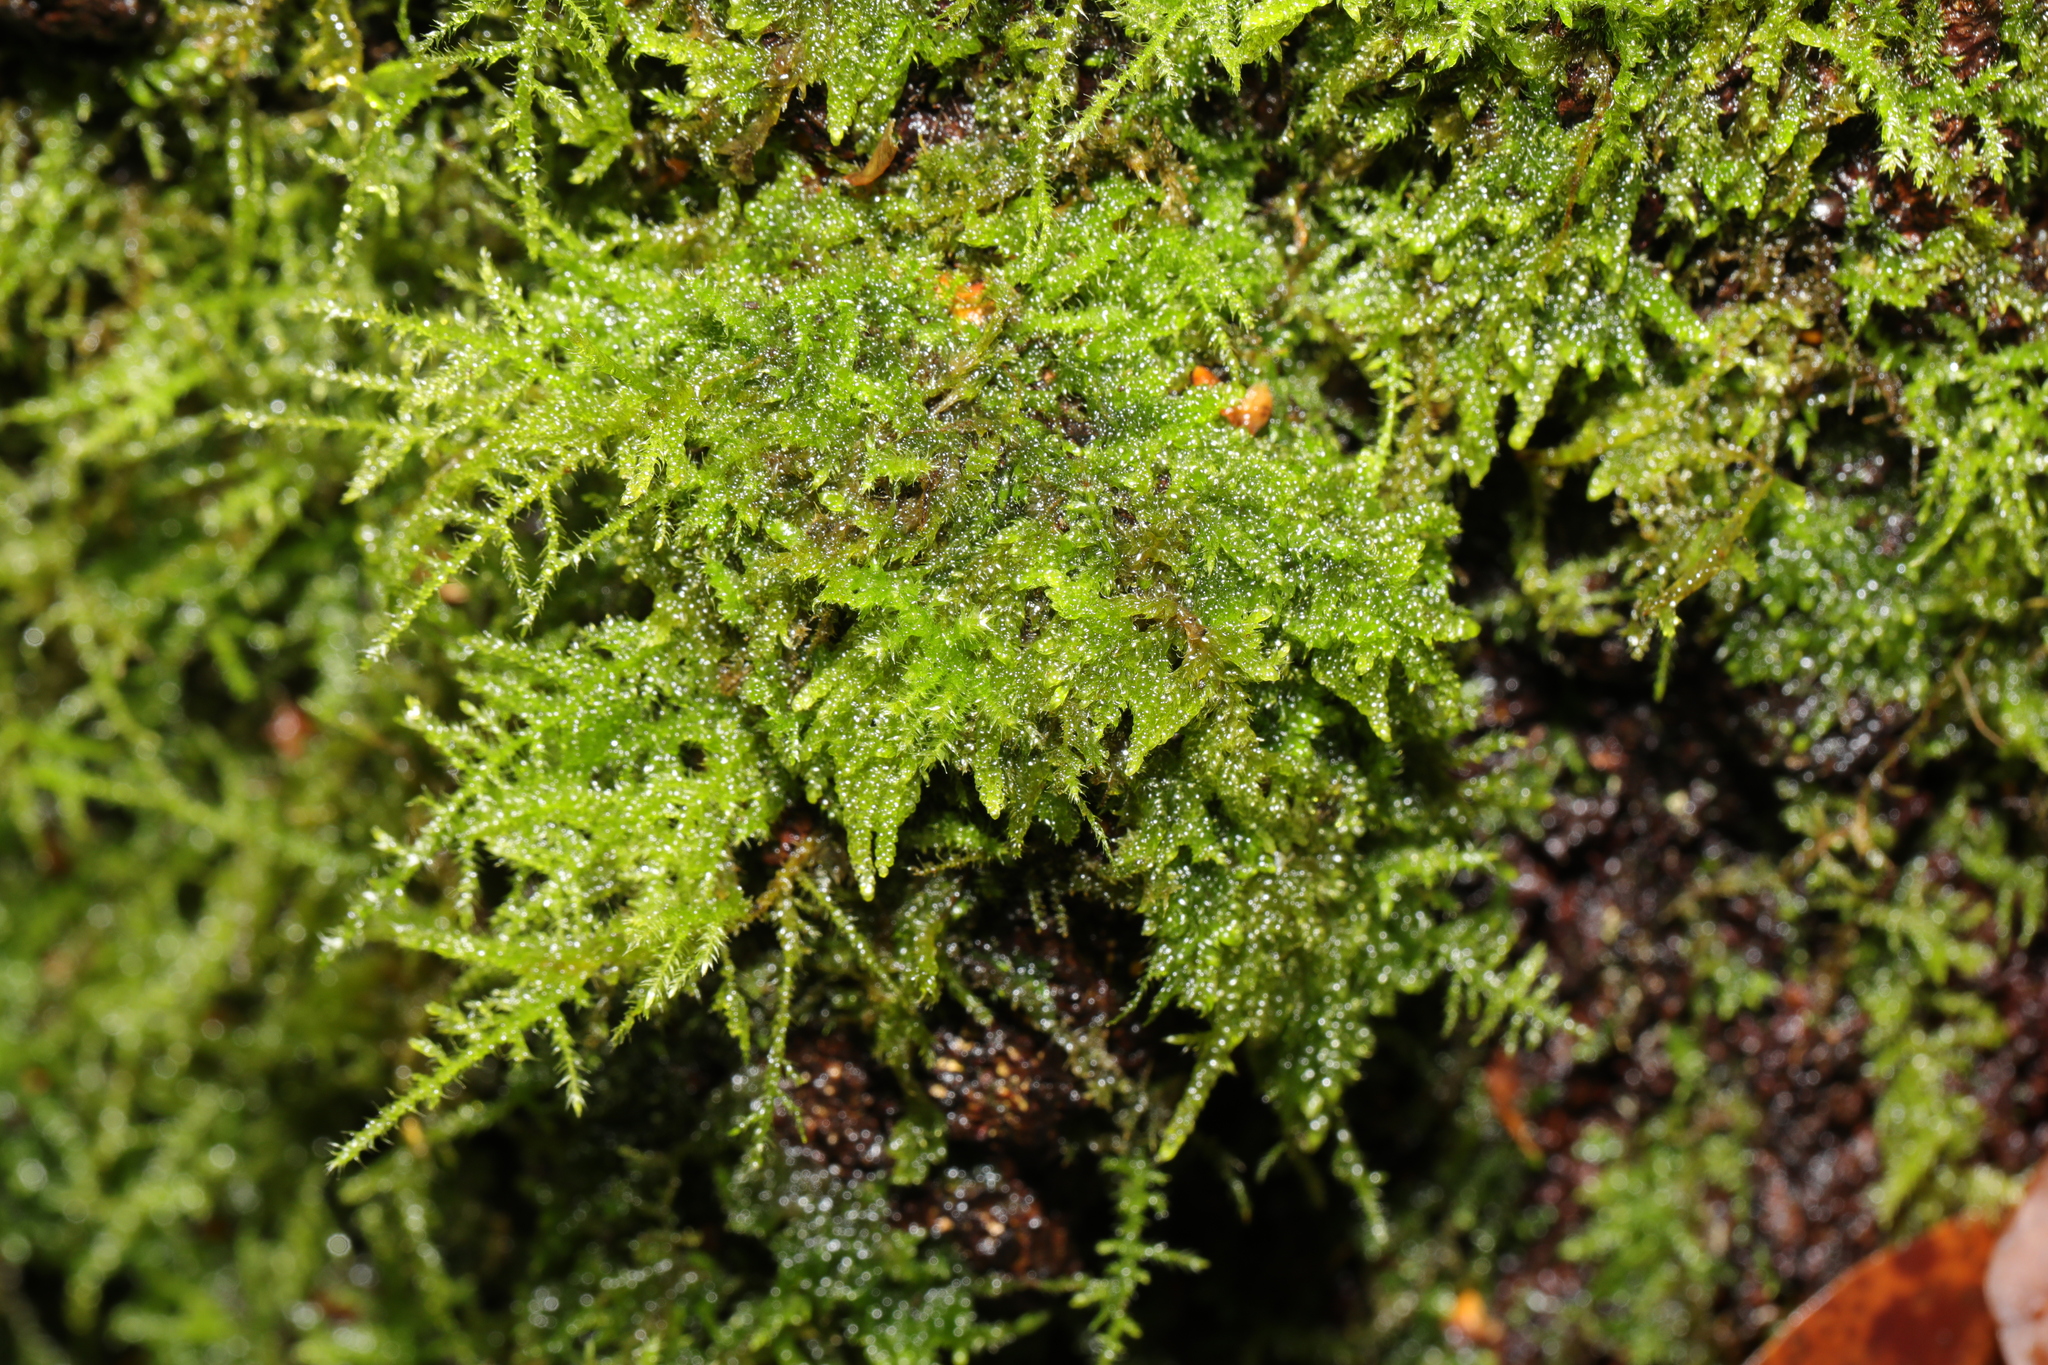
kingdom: Plantae
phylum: Bryophyta
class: Bryopsida
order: Hypnales
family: Brachytheciaceae
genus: Kindbergia
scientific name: Kindbergia praelonga
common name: Slender beaked moss
